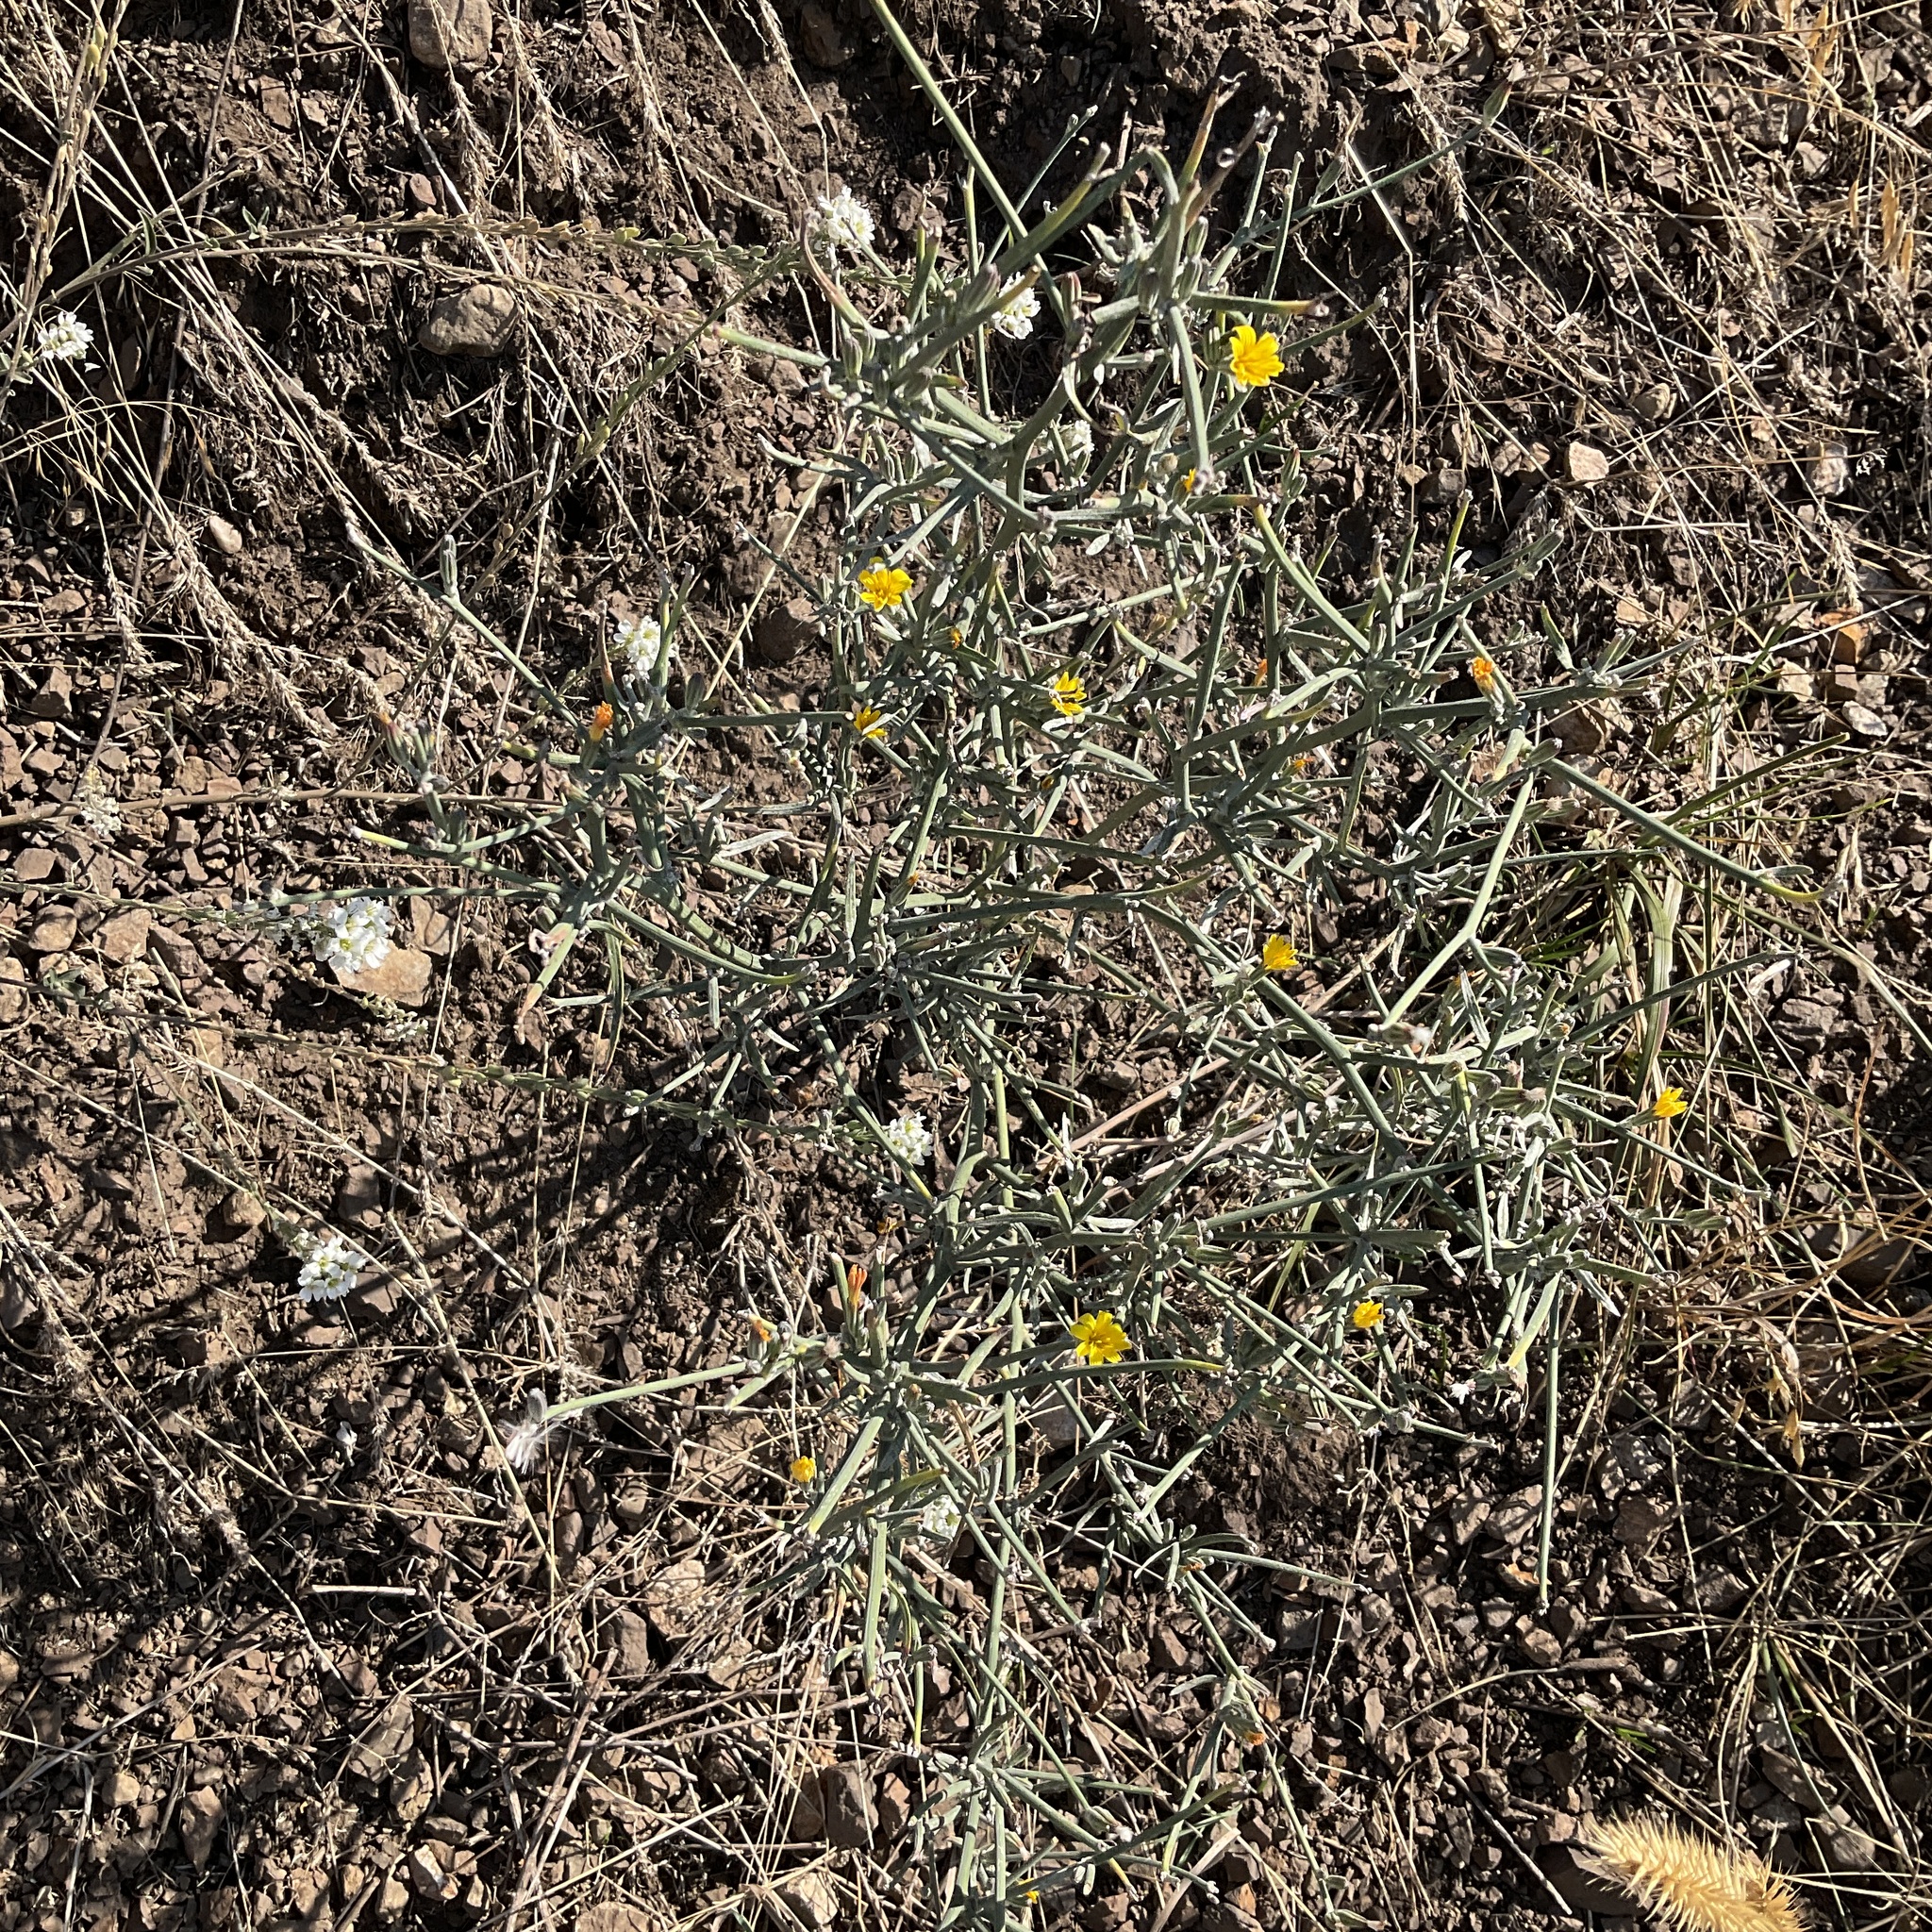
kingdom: Plantae
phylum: Tracheophyta
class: Magnoliopsida
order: Asterales
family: Asteraceae
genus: Chondrilla
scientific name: Chondrilla juncea
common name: Skeleton weed
